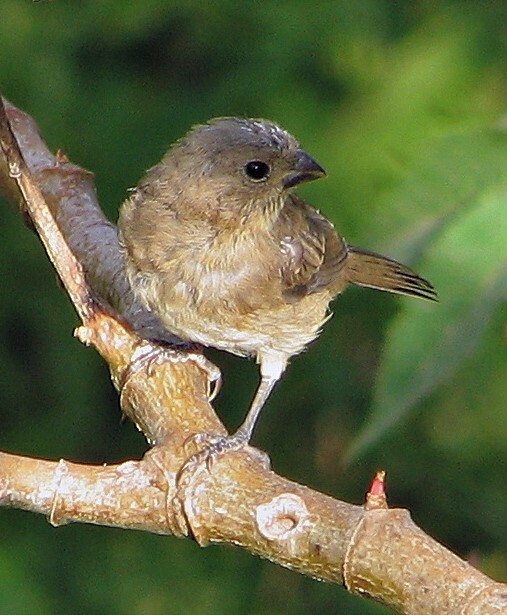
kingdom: Animalia
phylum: Chordata
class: Aves
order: Passeriformes
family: Thraupidae
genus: Sporophila
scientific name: Sporophila caerulescens
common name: Double-collared seedeater
